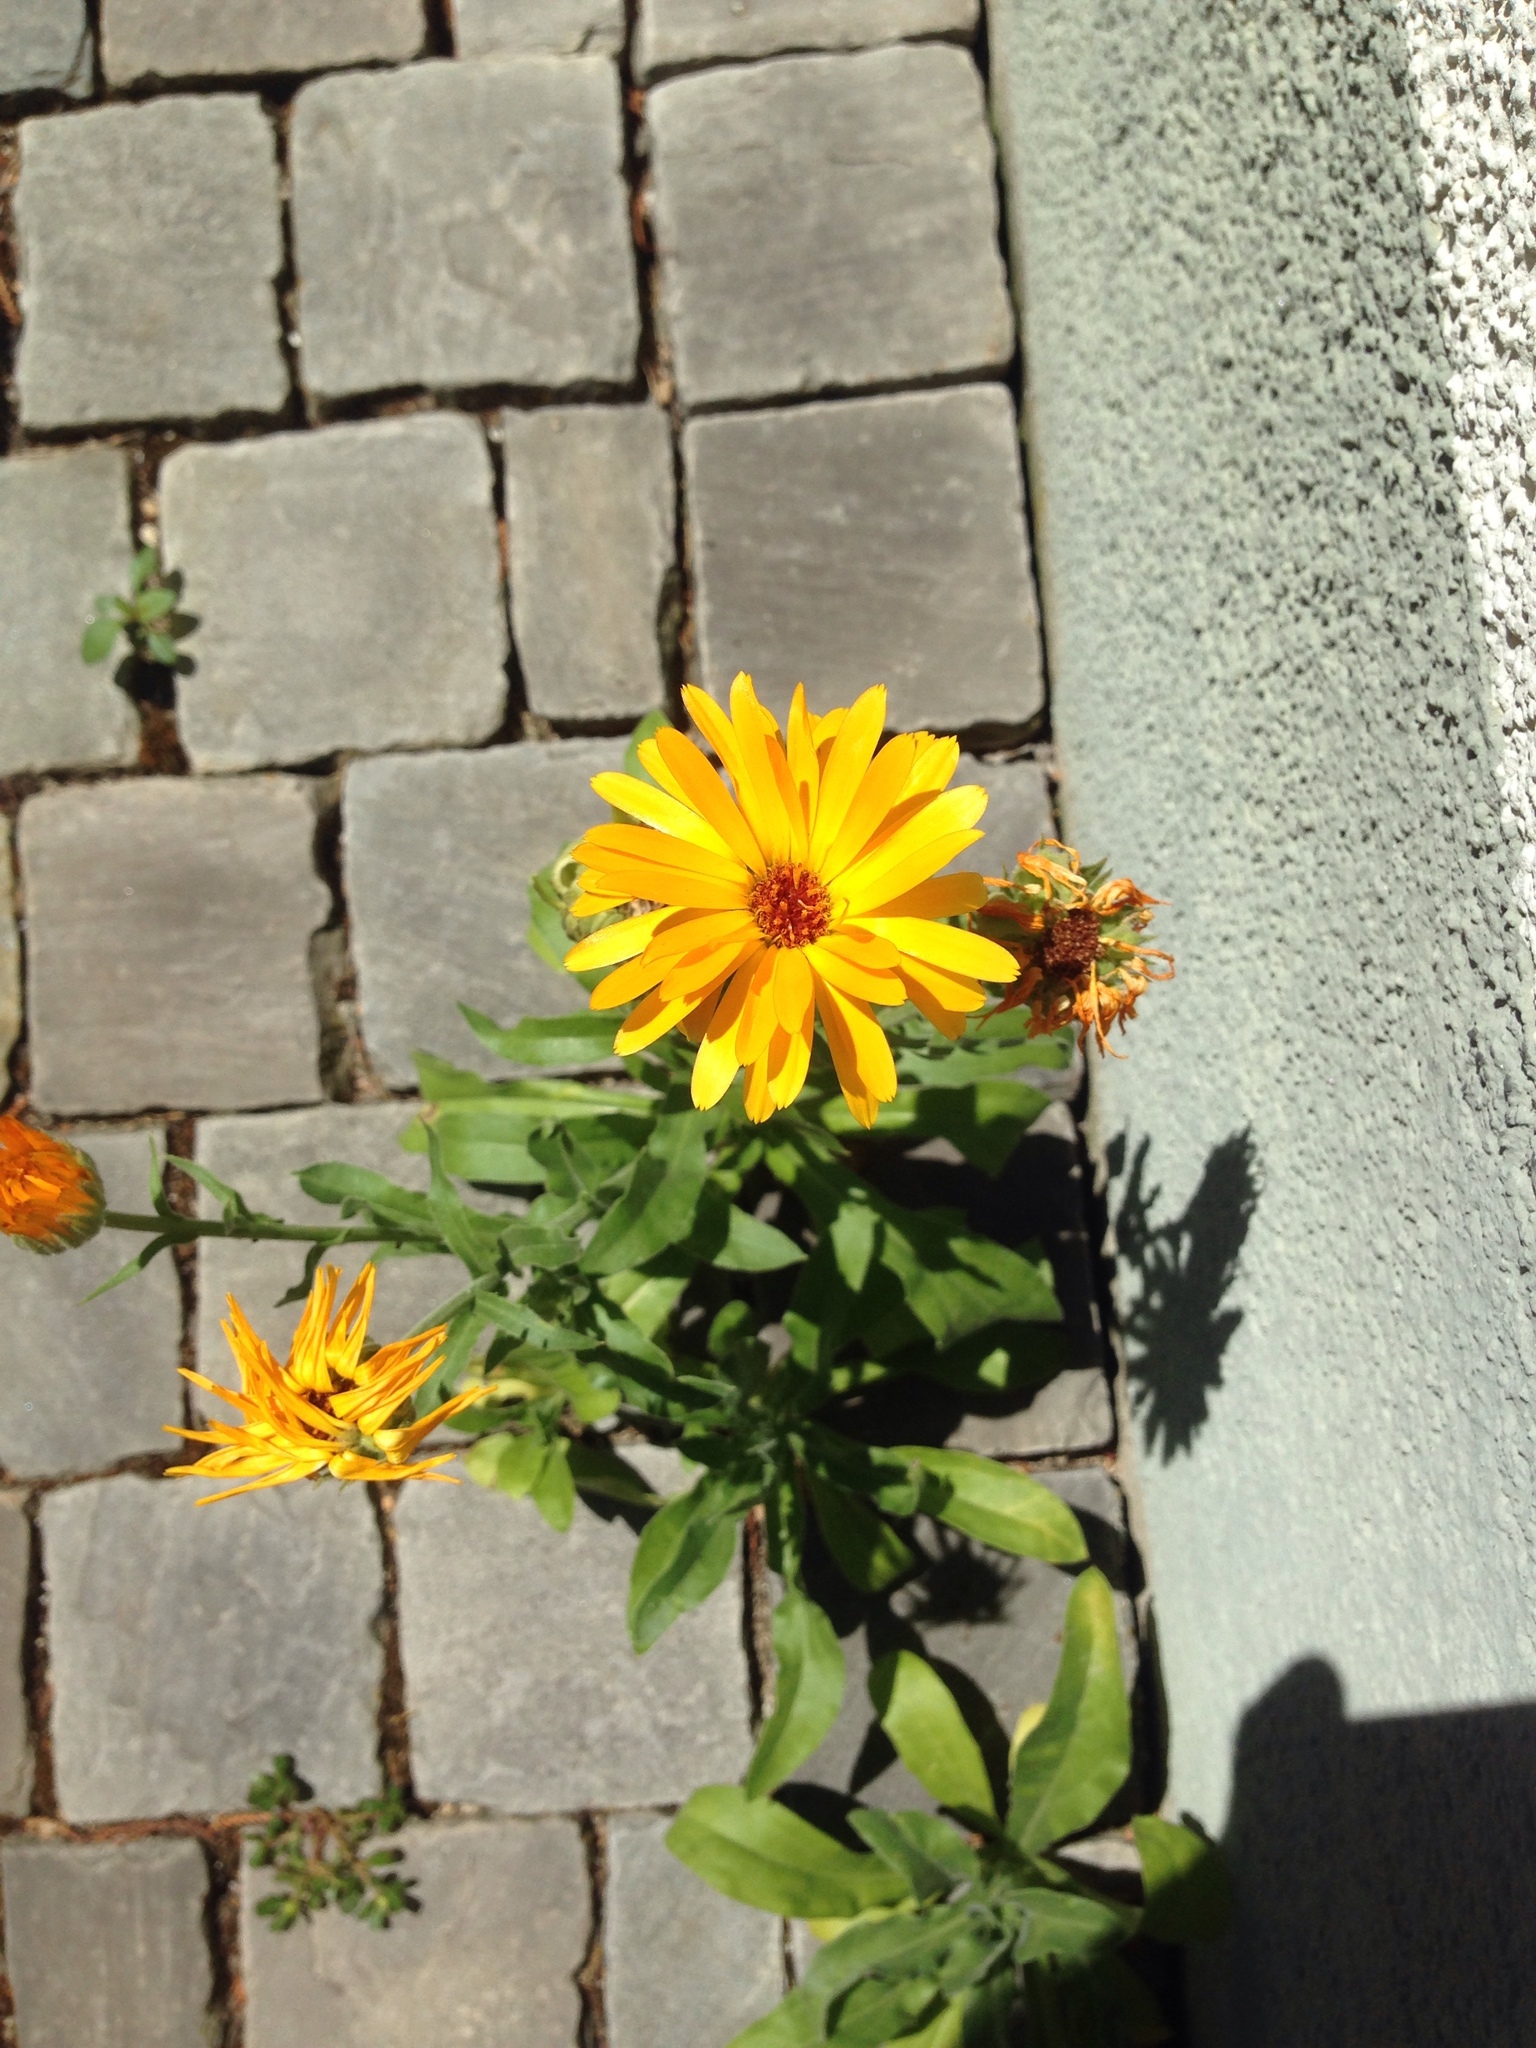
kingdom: Plantae
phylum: Tracheophyta
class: Magnoliopsida
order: Asterales
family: Asteraceae
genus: Calendula
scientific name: Calendula officinalis
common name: Pot marigold
